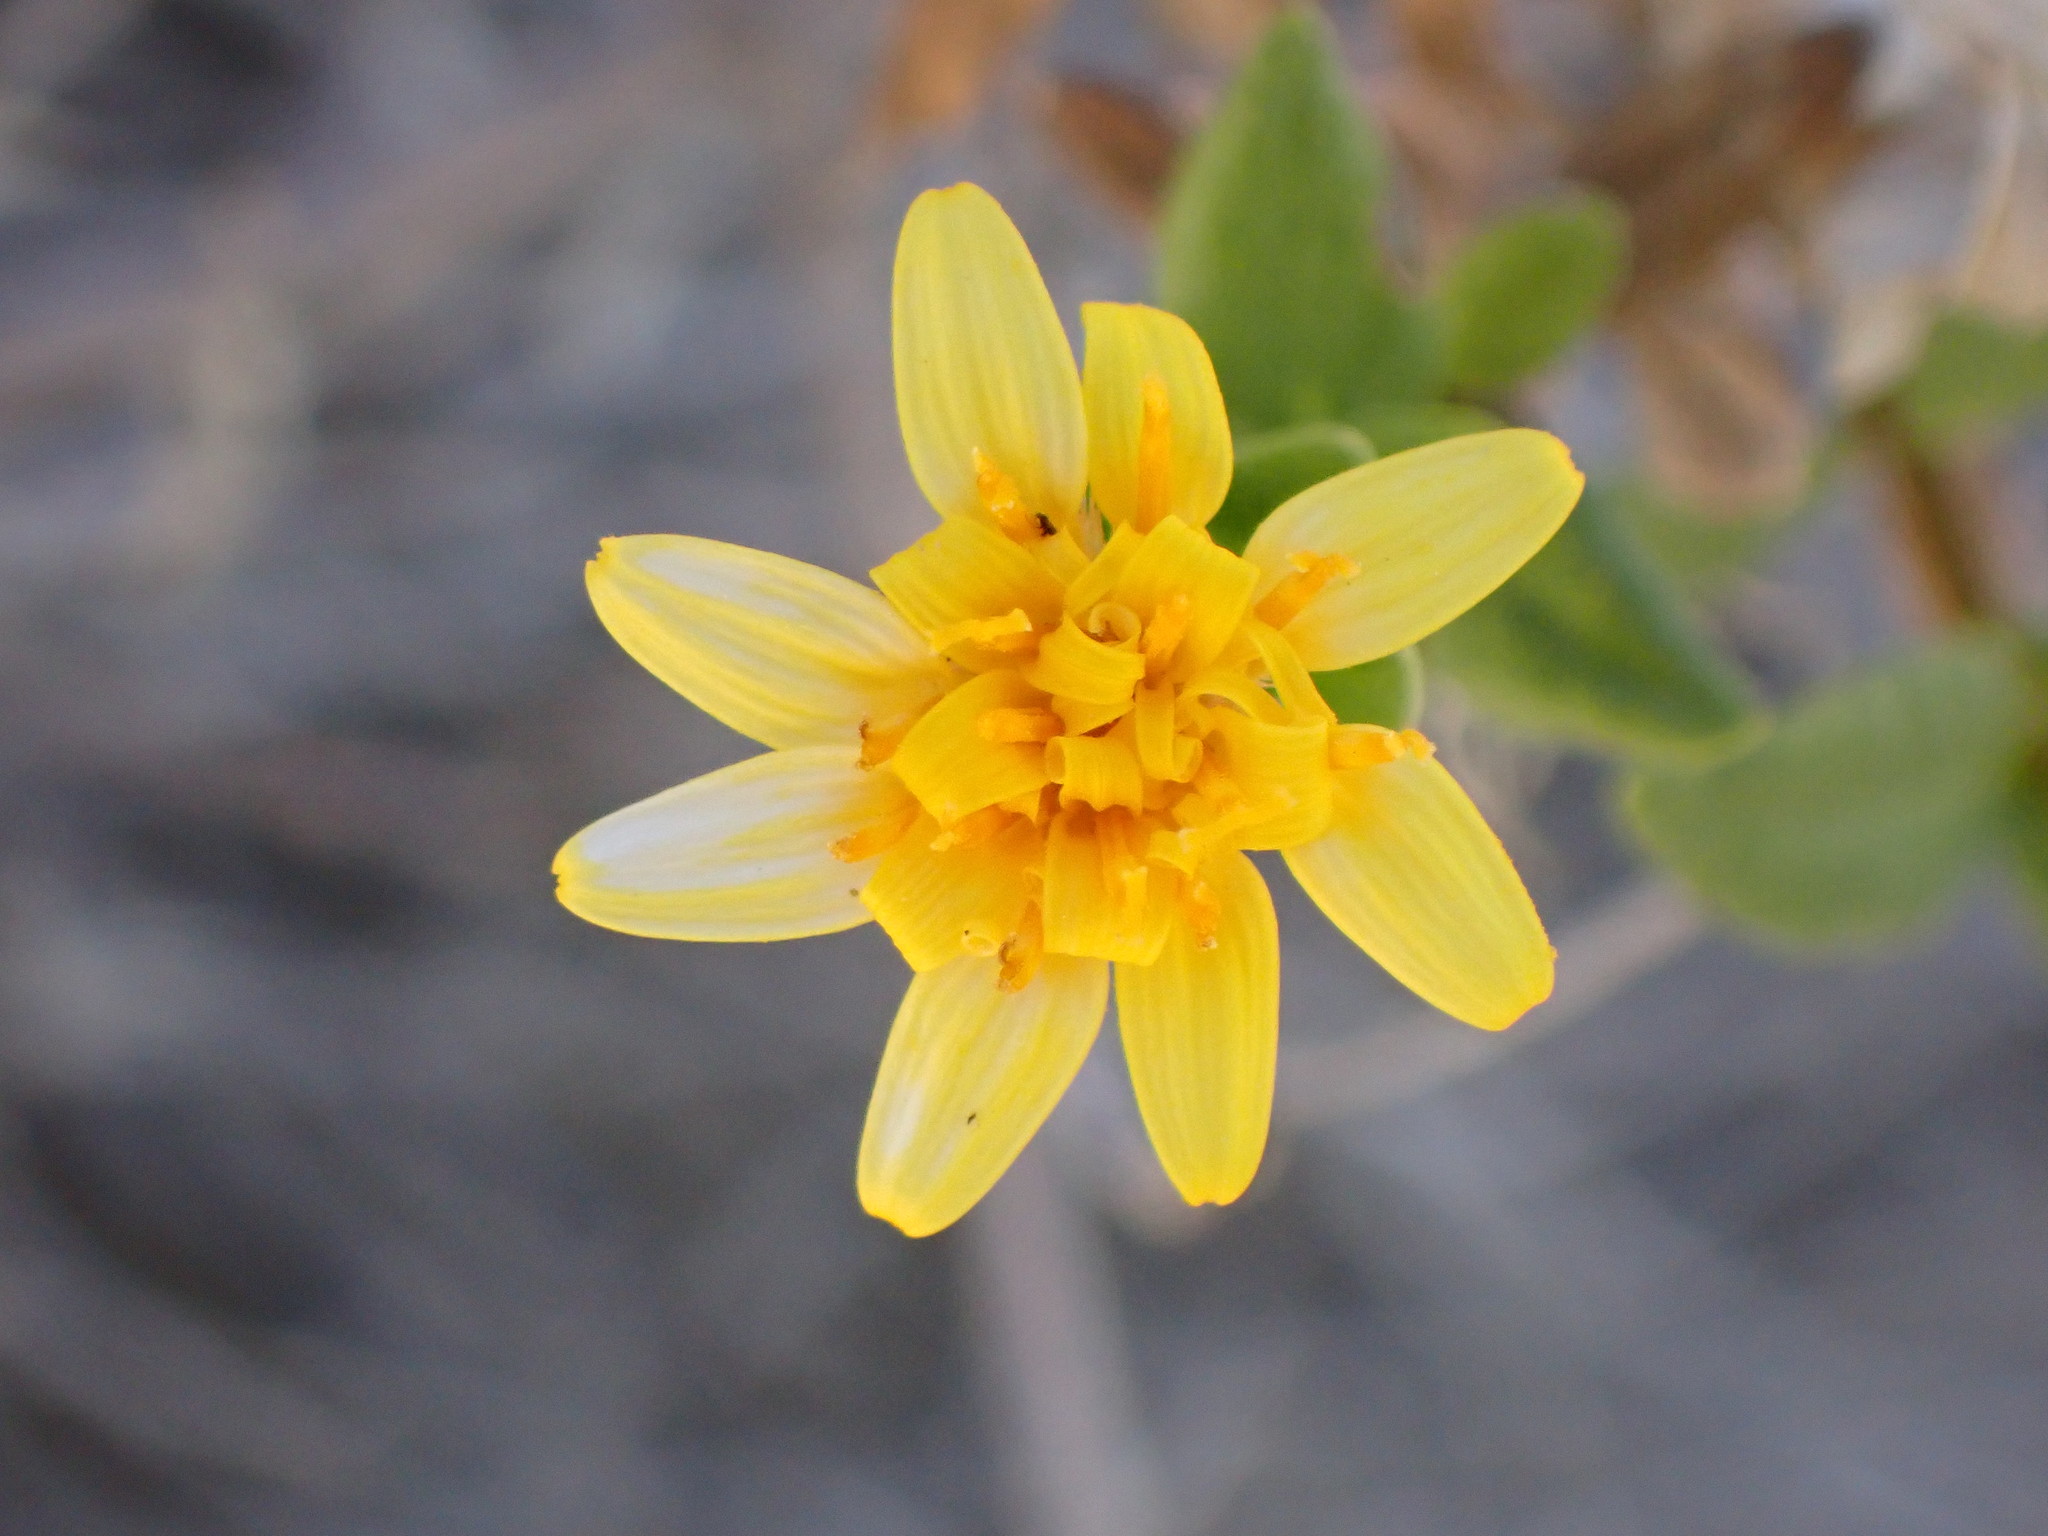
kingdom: Plantae
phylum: Tracheophyta
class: Magnoliopsida
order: Asterales
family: Asteraceae
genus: Trixis
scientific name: Trixis californica
